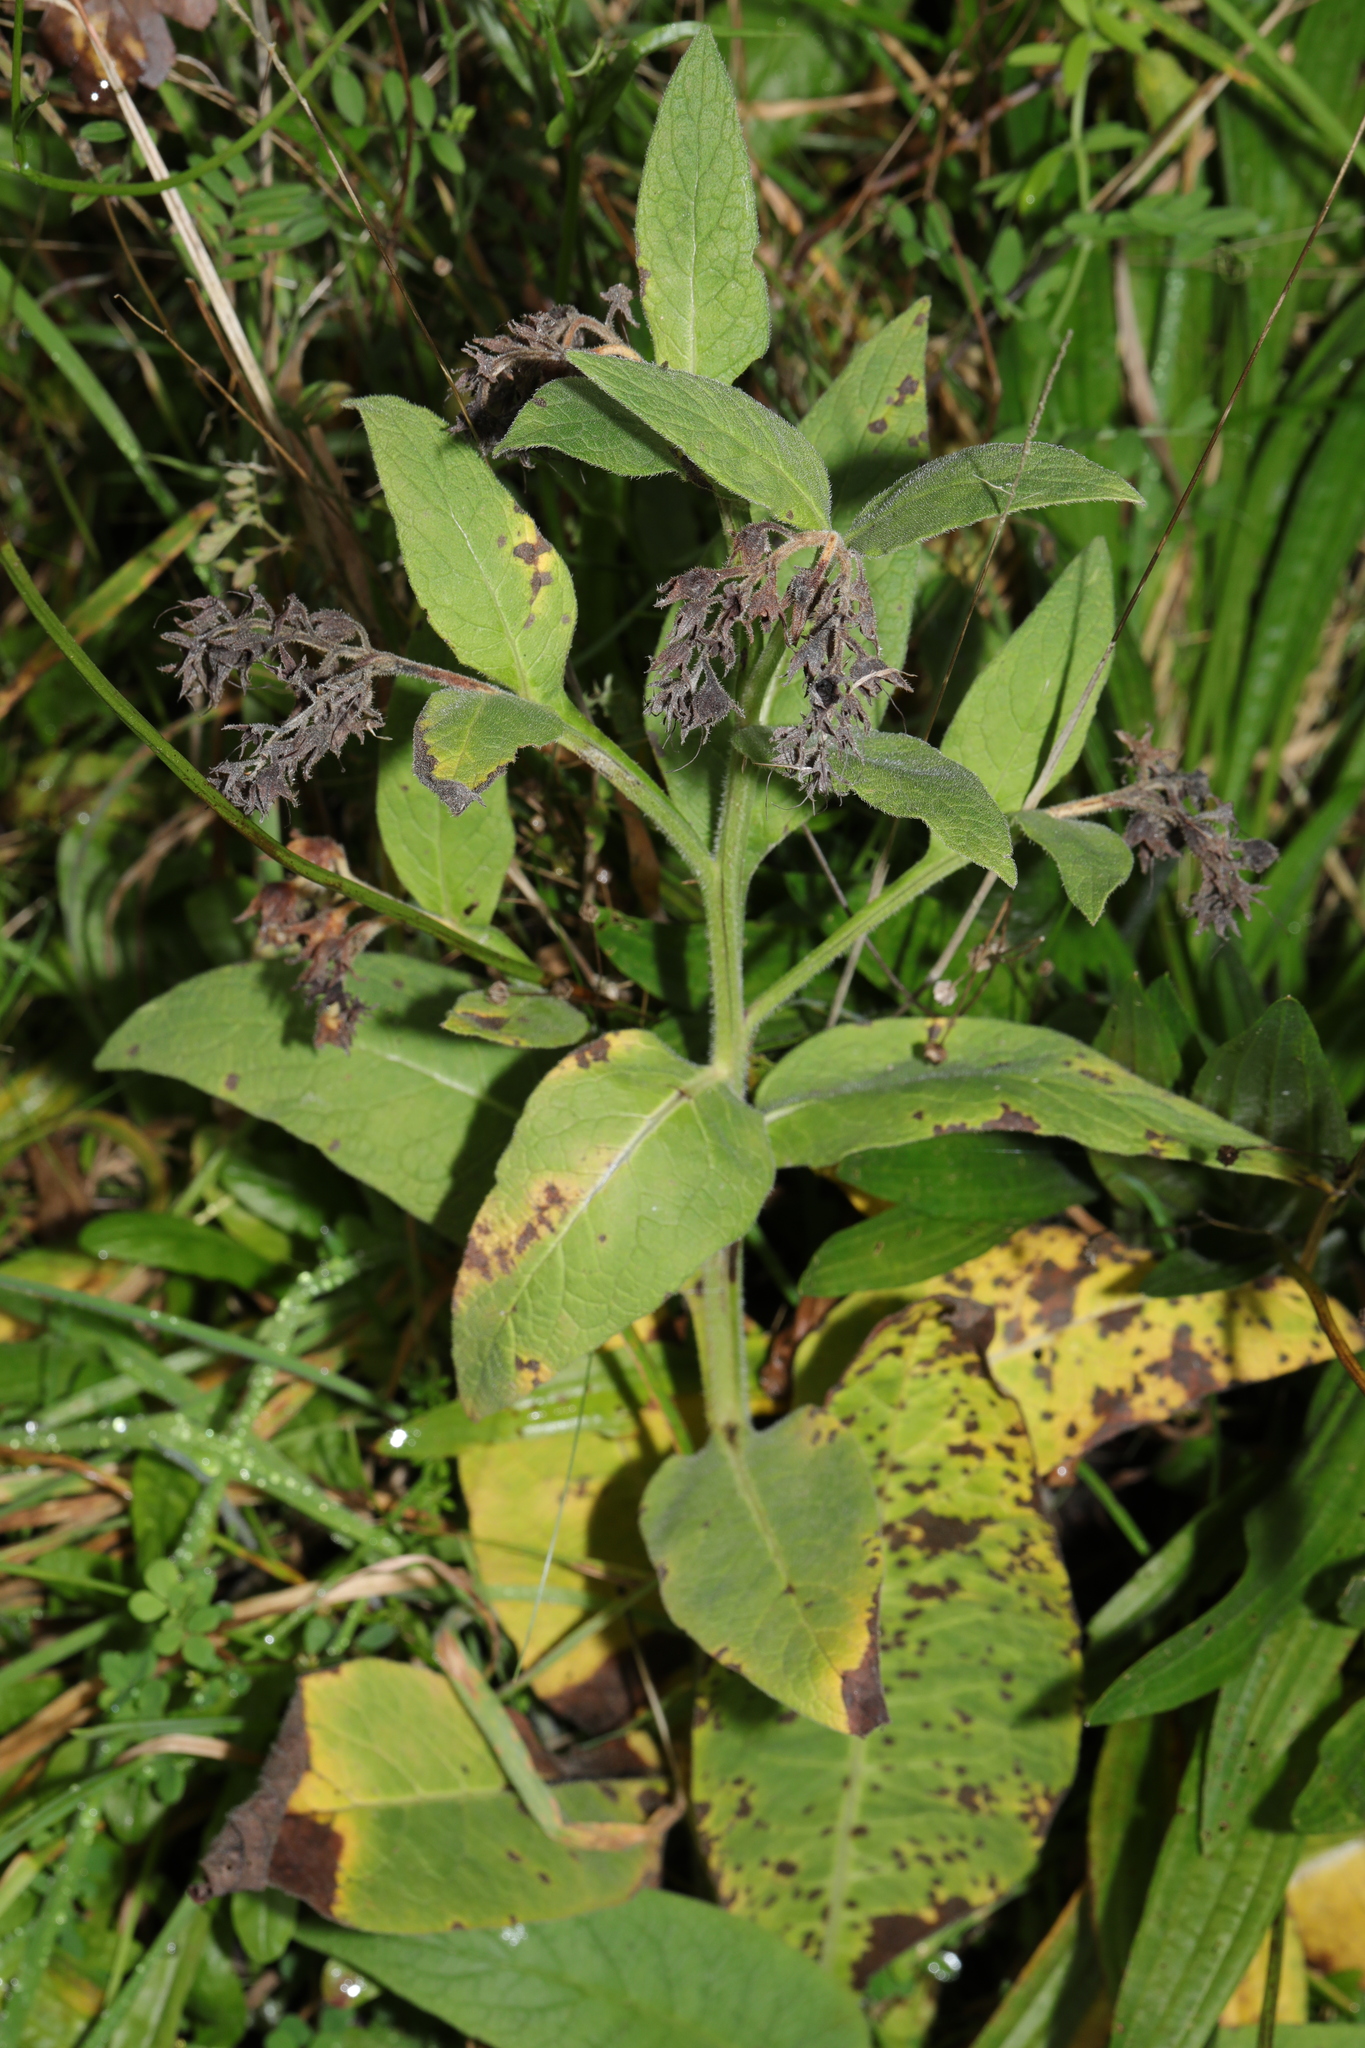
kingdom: Plantae
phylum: Tracheophyta
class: Magnoliopsida
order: Boraginales
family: Boraginaceae
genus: Symphytum
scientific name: Symphytum uplandicum
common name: Russian comfrey
